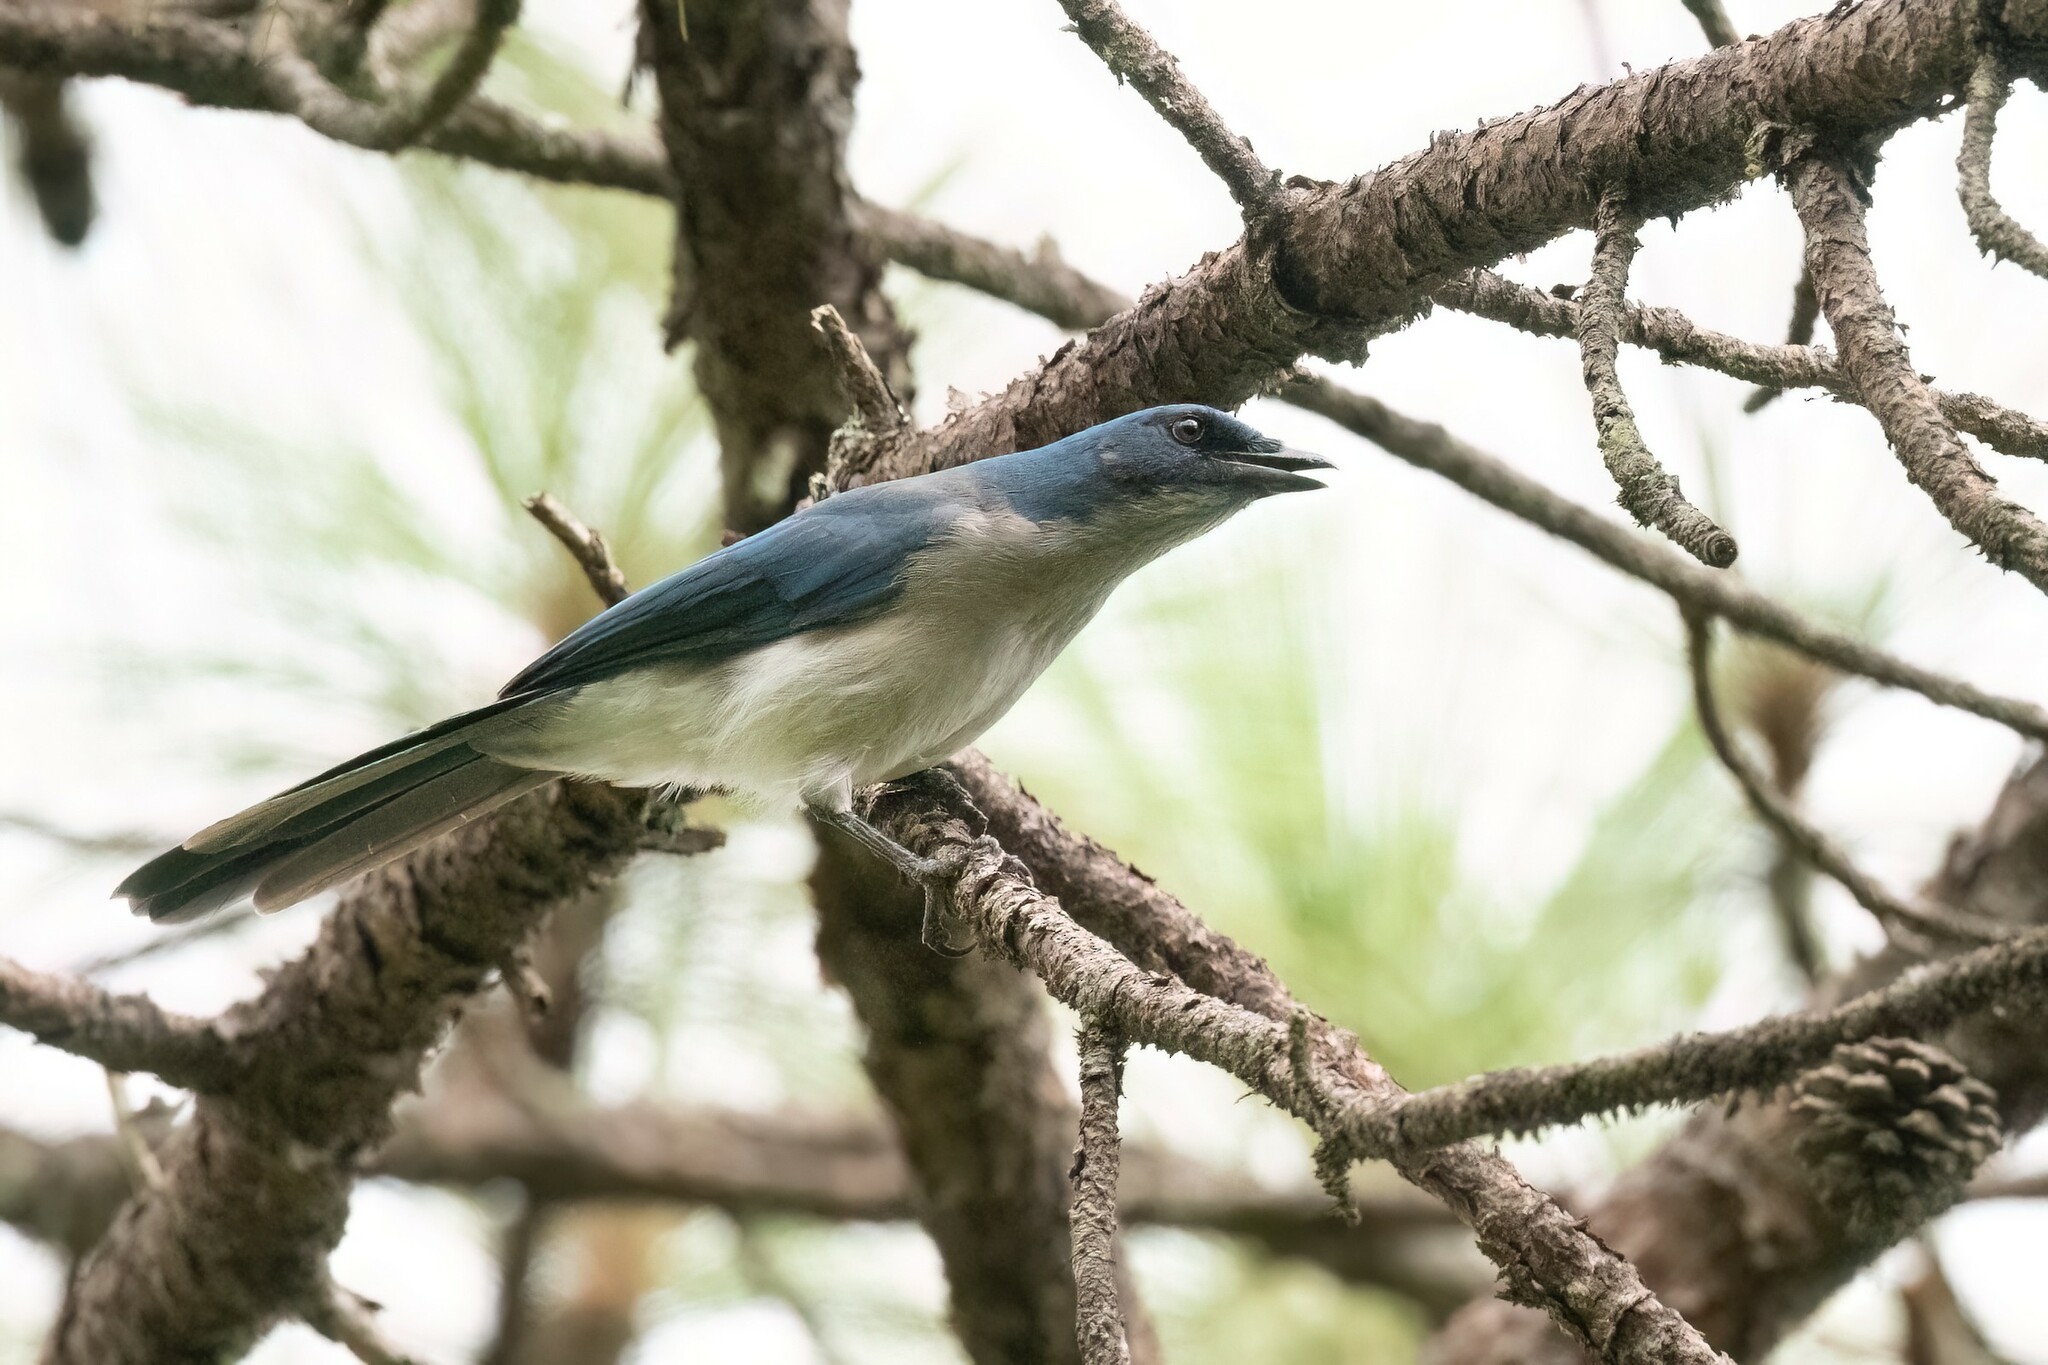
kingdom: Animalia
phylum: Chordata
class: Aves
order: Passeriformes
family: Corvidae
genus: Aphelocoma
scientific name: Aphelocoma ultramarina
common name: Transvolcanic jay
